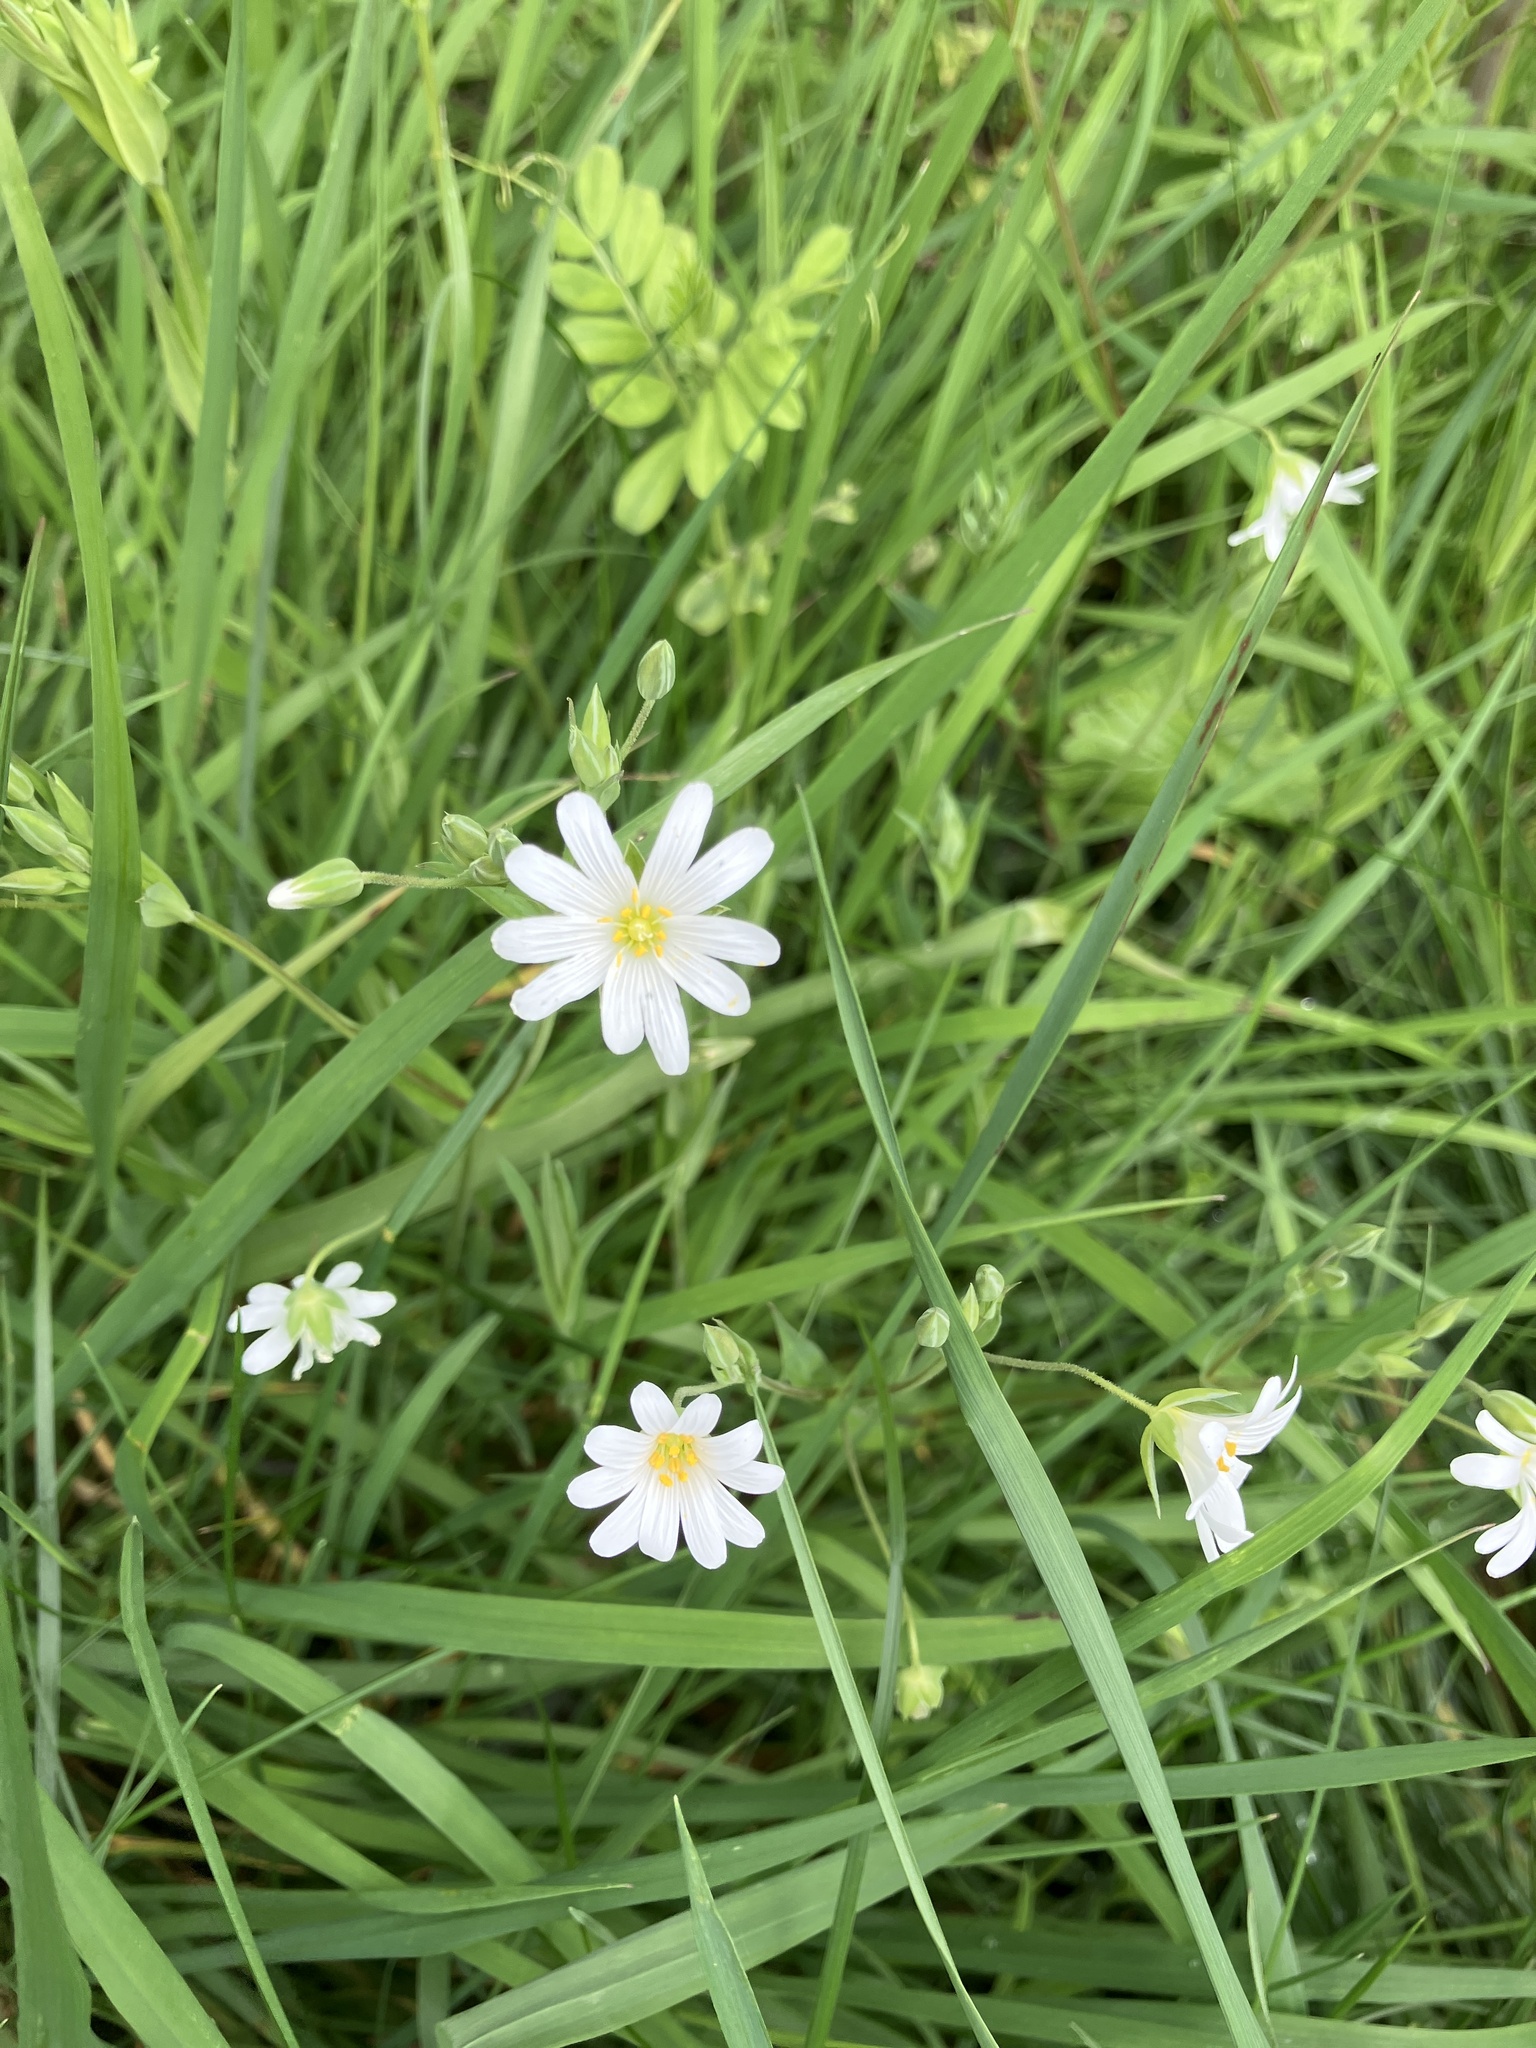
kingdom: Plantae
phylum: Tracheophyta
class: Magnoliopsida
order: Caryophyllales
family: Caryophyllaceae
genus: Rabelera
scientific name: Rabelera holostea
